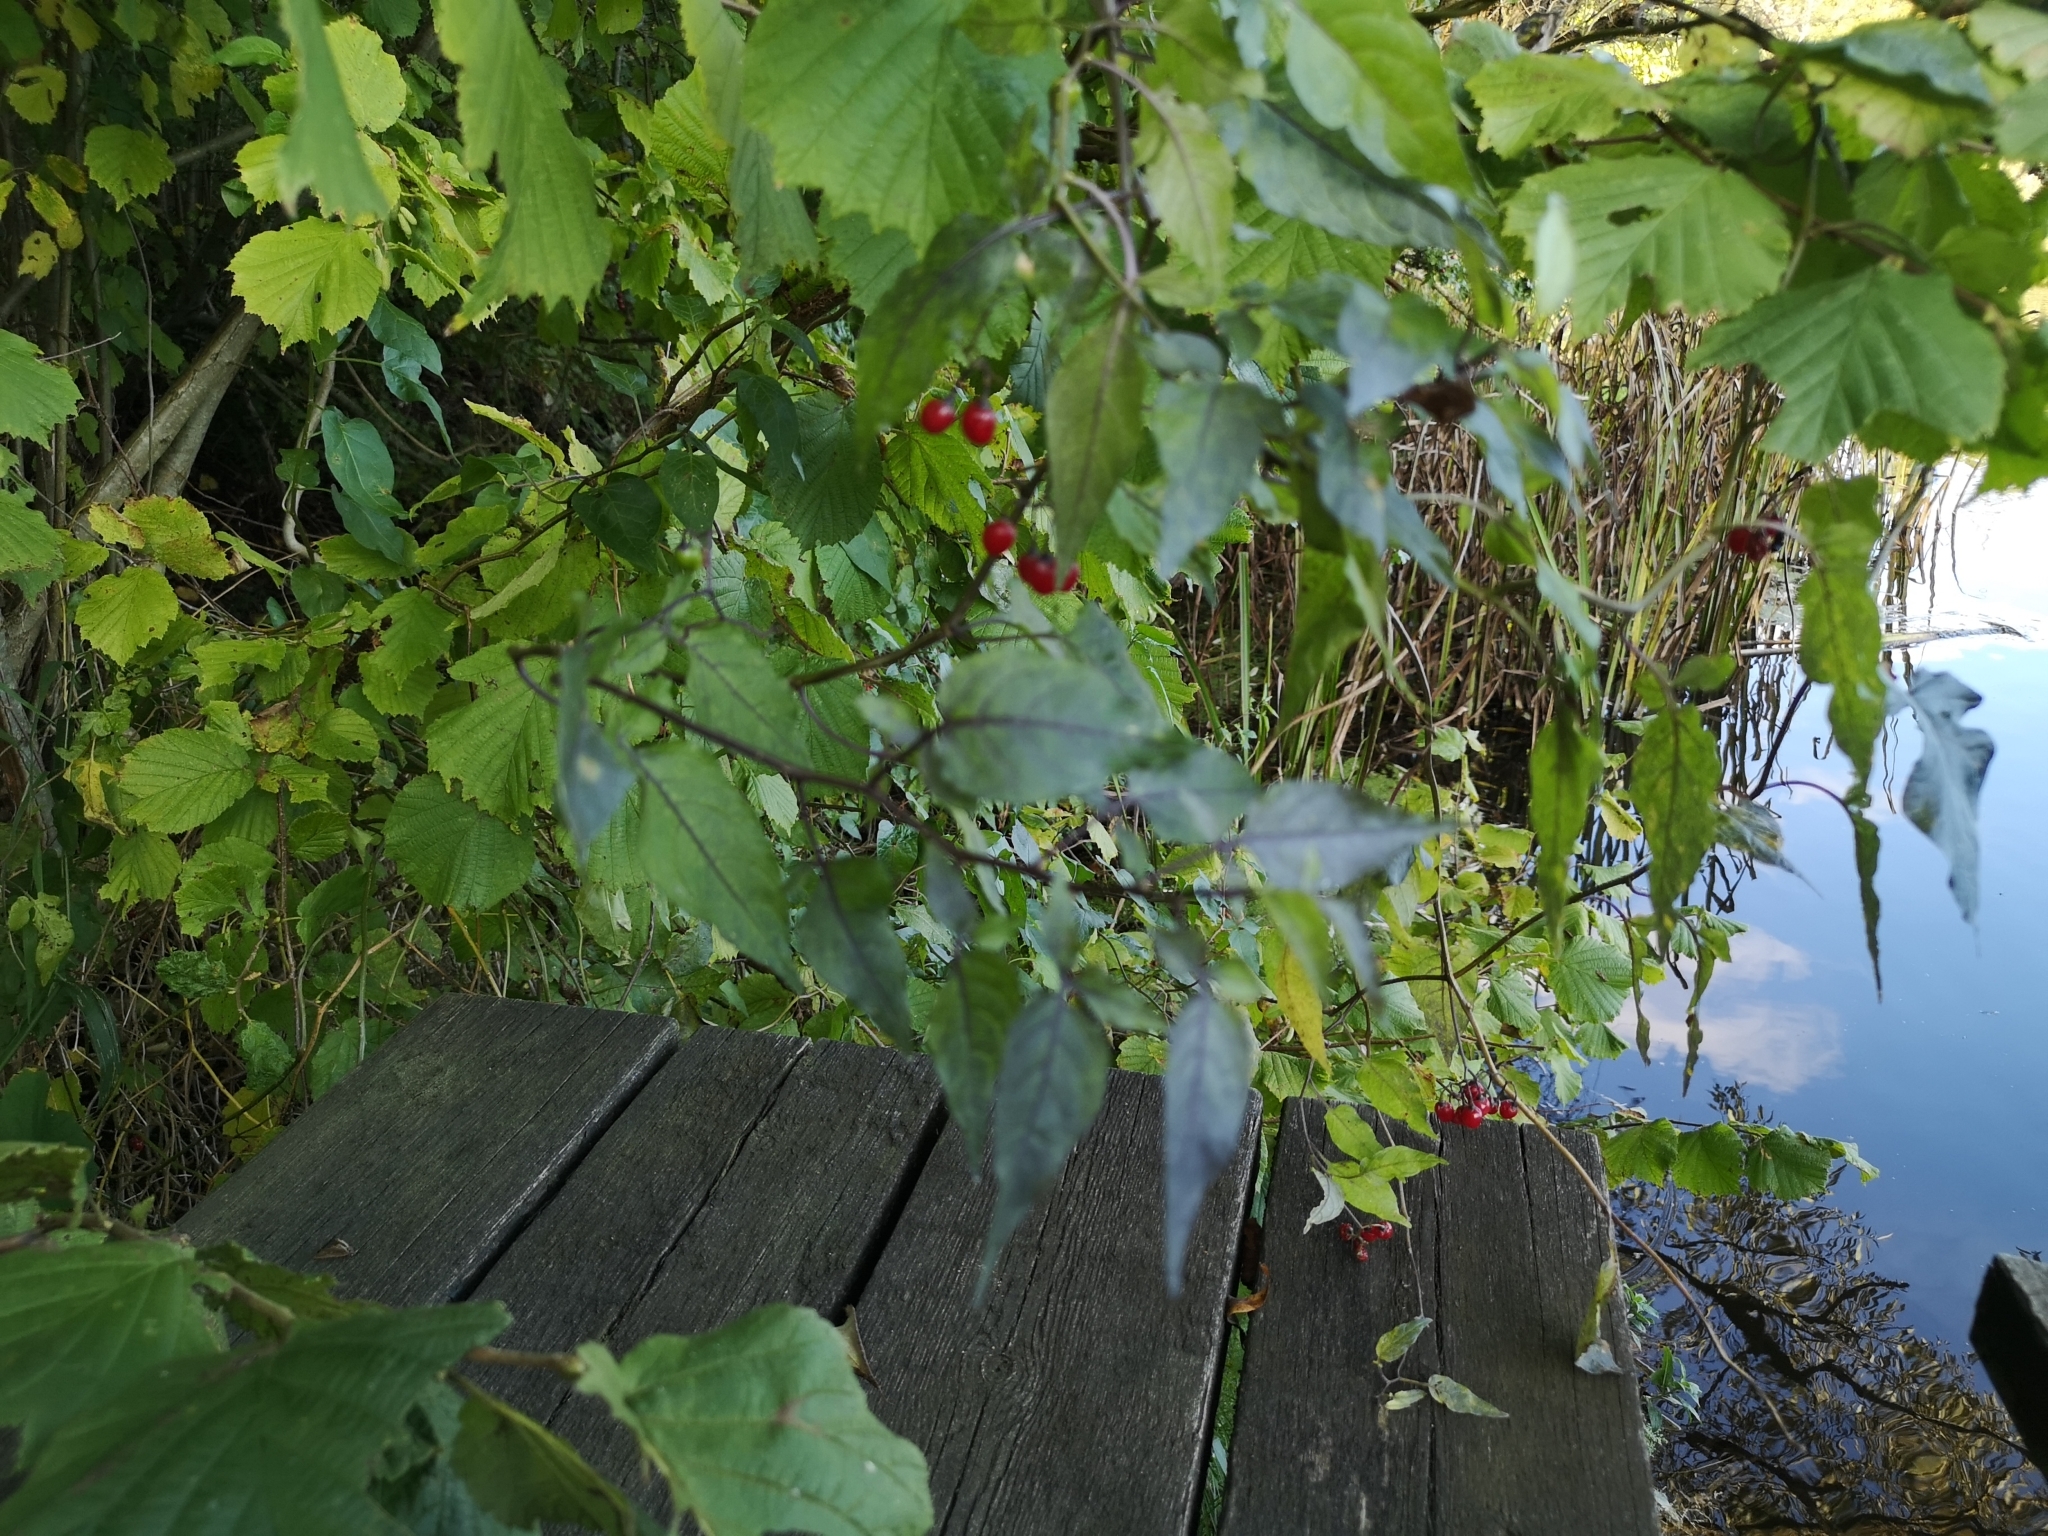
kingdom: Plantae
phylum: Tracheophyta
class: Magnoliopsida
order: Solanales
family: Solanaceae
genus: Solanum
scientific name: Solanum dulcamara
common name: Climbing nightshade
